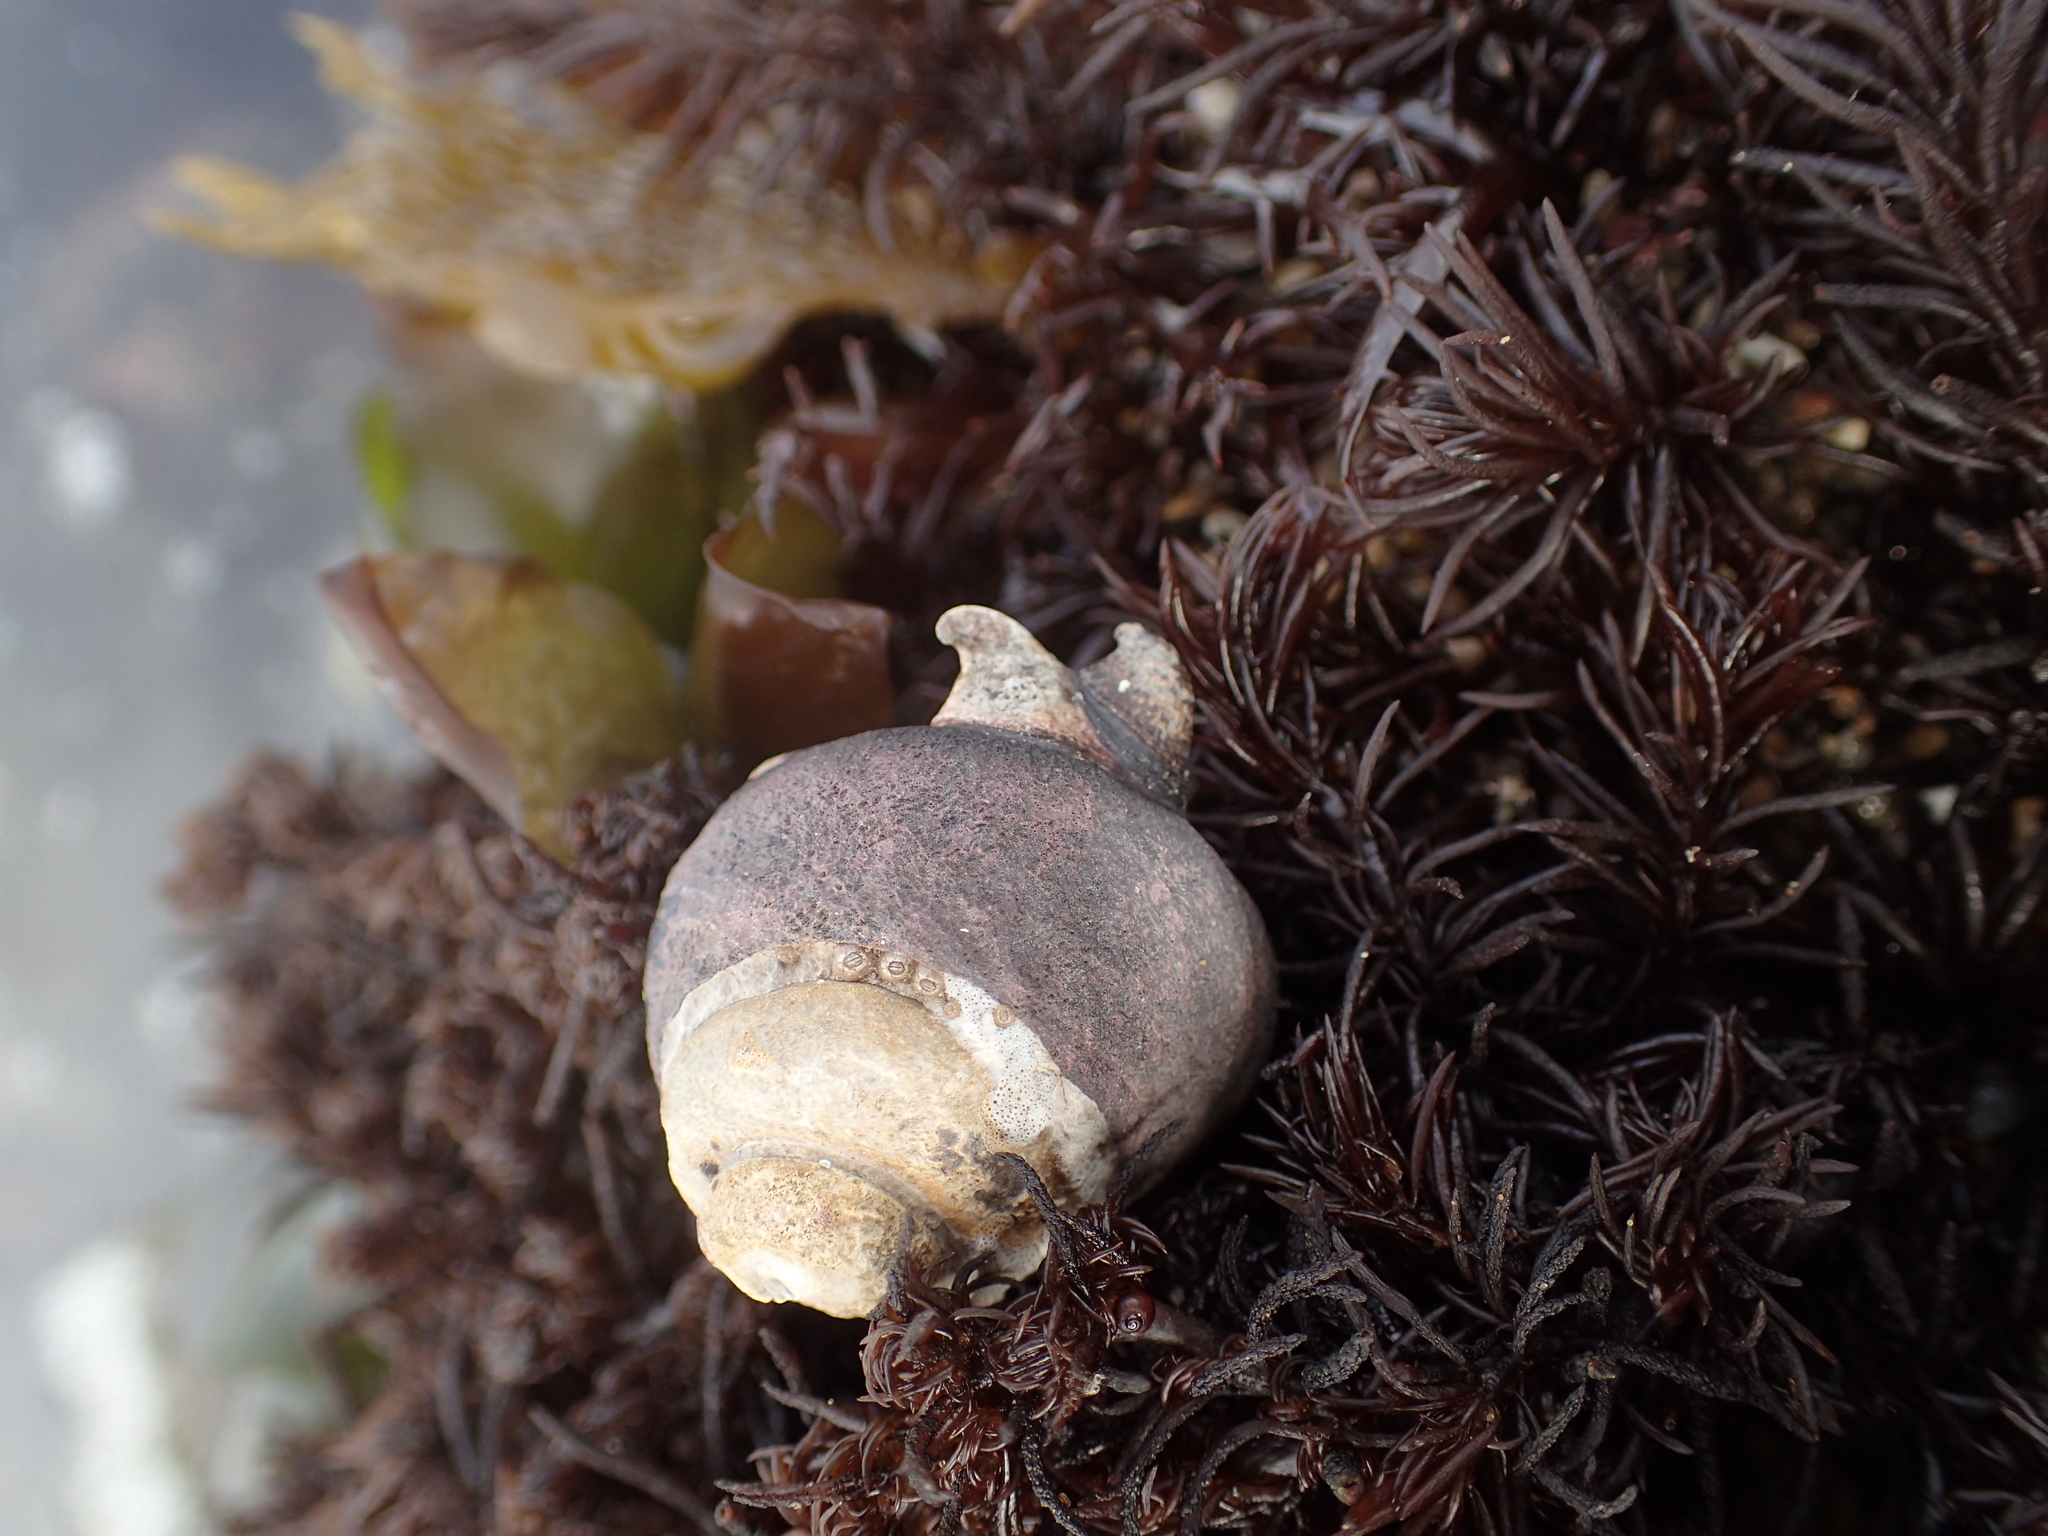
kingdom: Animalia
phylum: Mollusca
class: Gastropoda
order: Trochida
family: Tegulidae
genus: Tegula
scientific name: Tegula funebralis
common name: Black tegula
